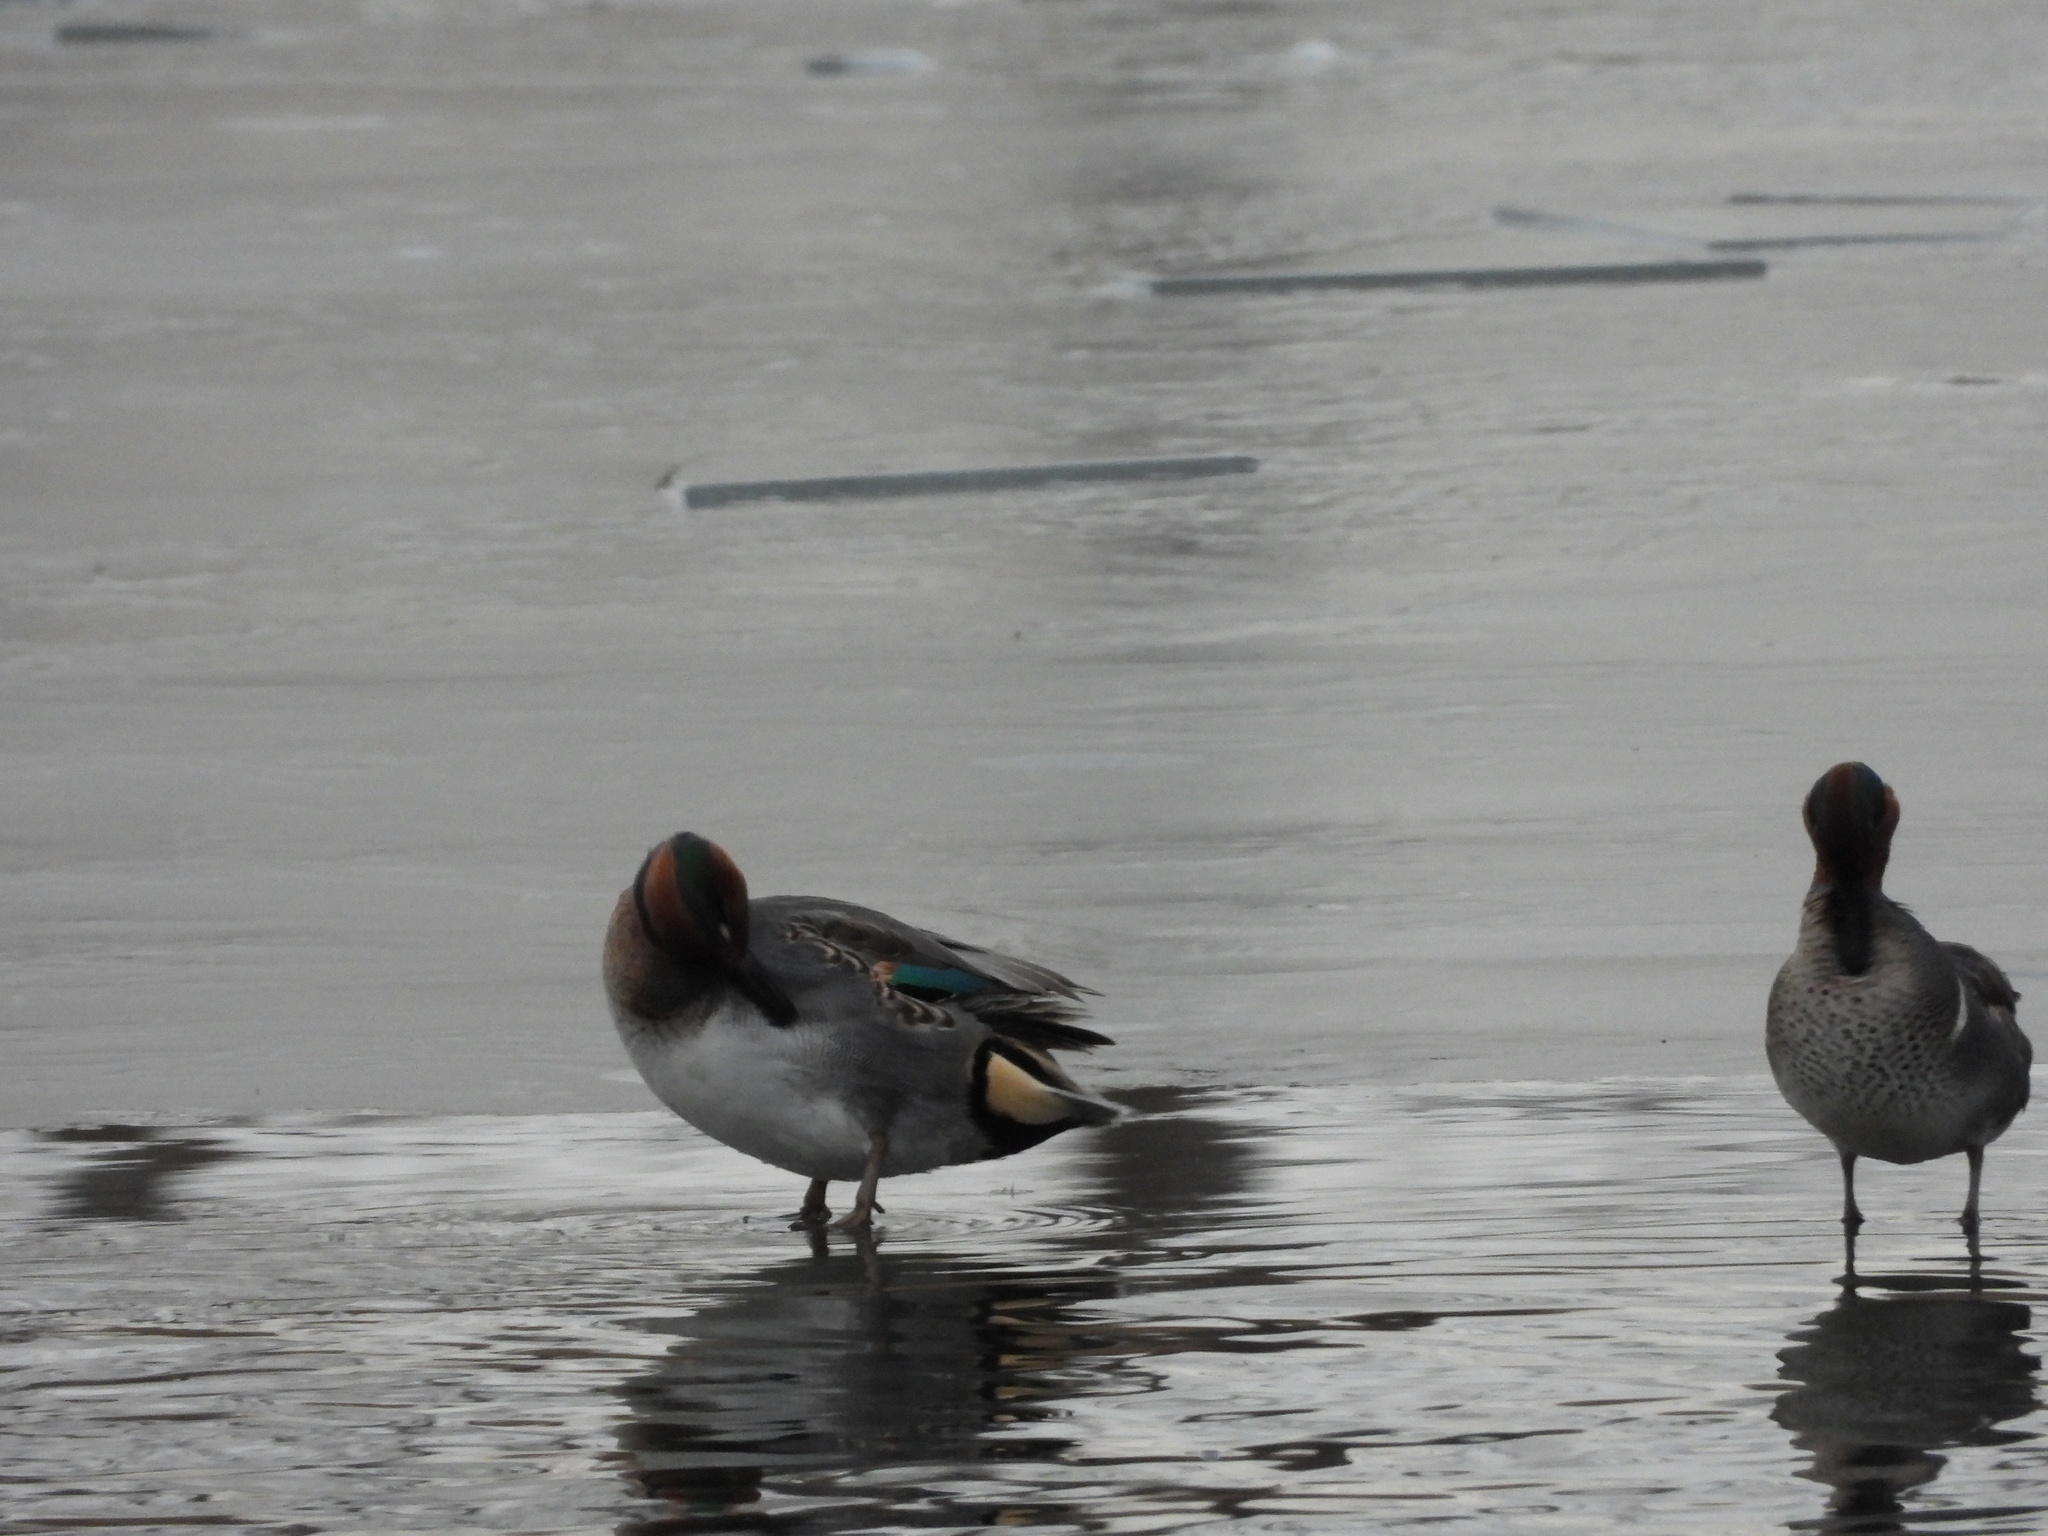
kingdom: Animalia
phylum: Chordata
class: Aves
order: Anseriformes
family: Anatidae
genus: Anas
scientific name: Anas crecca
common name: Eurasian teal
